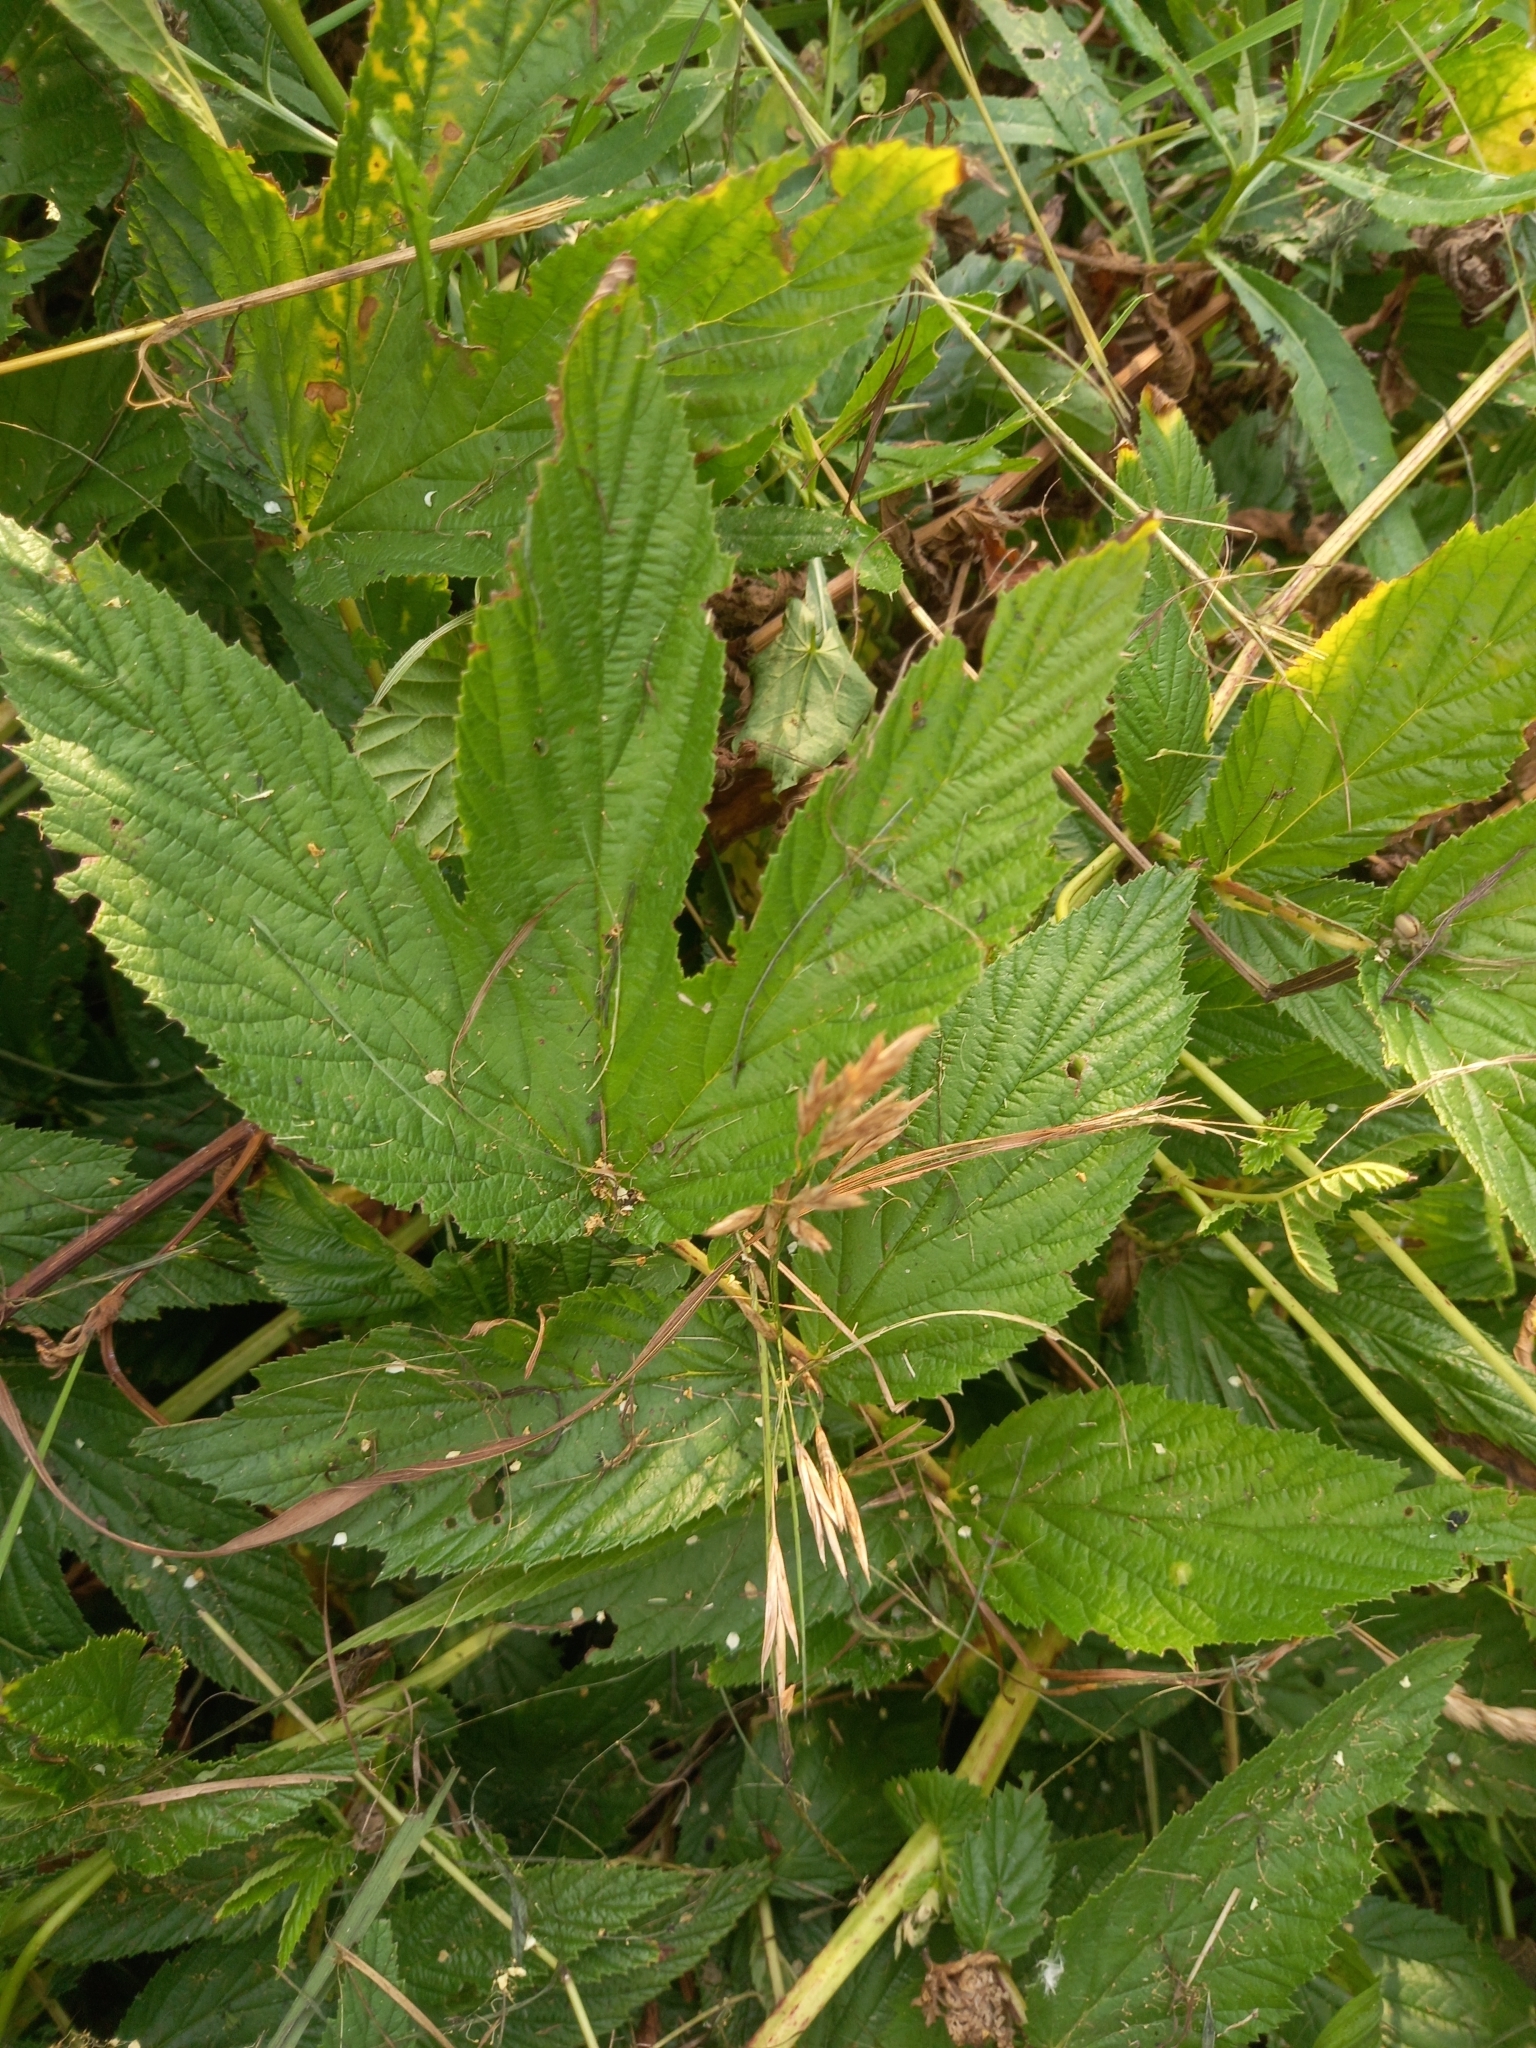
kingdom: Plantae
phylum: Tracheophyta
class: Magnoliopsida
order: Rosales
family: Rosaceae
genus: Filipendula
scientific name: Filipendula ulmaria
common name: Meadowsweet
